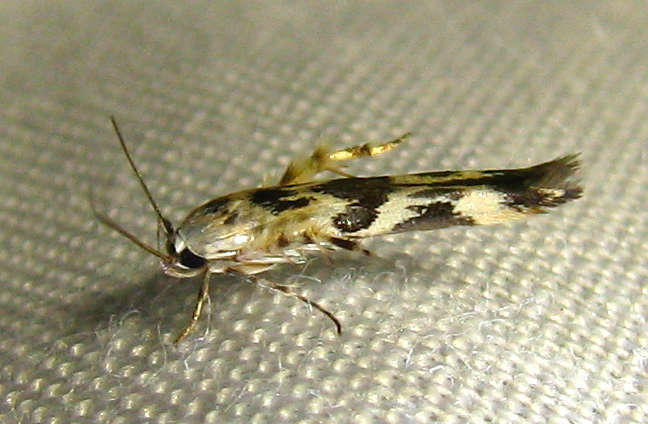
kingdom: Animalia
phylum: Arthropoda
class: Insecta
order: Lepidoptera
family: Stathmopodidae
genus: Stathmopoda
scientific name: Stathmopoda melanochra
